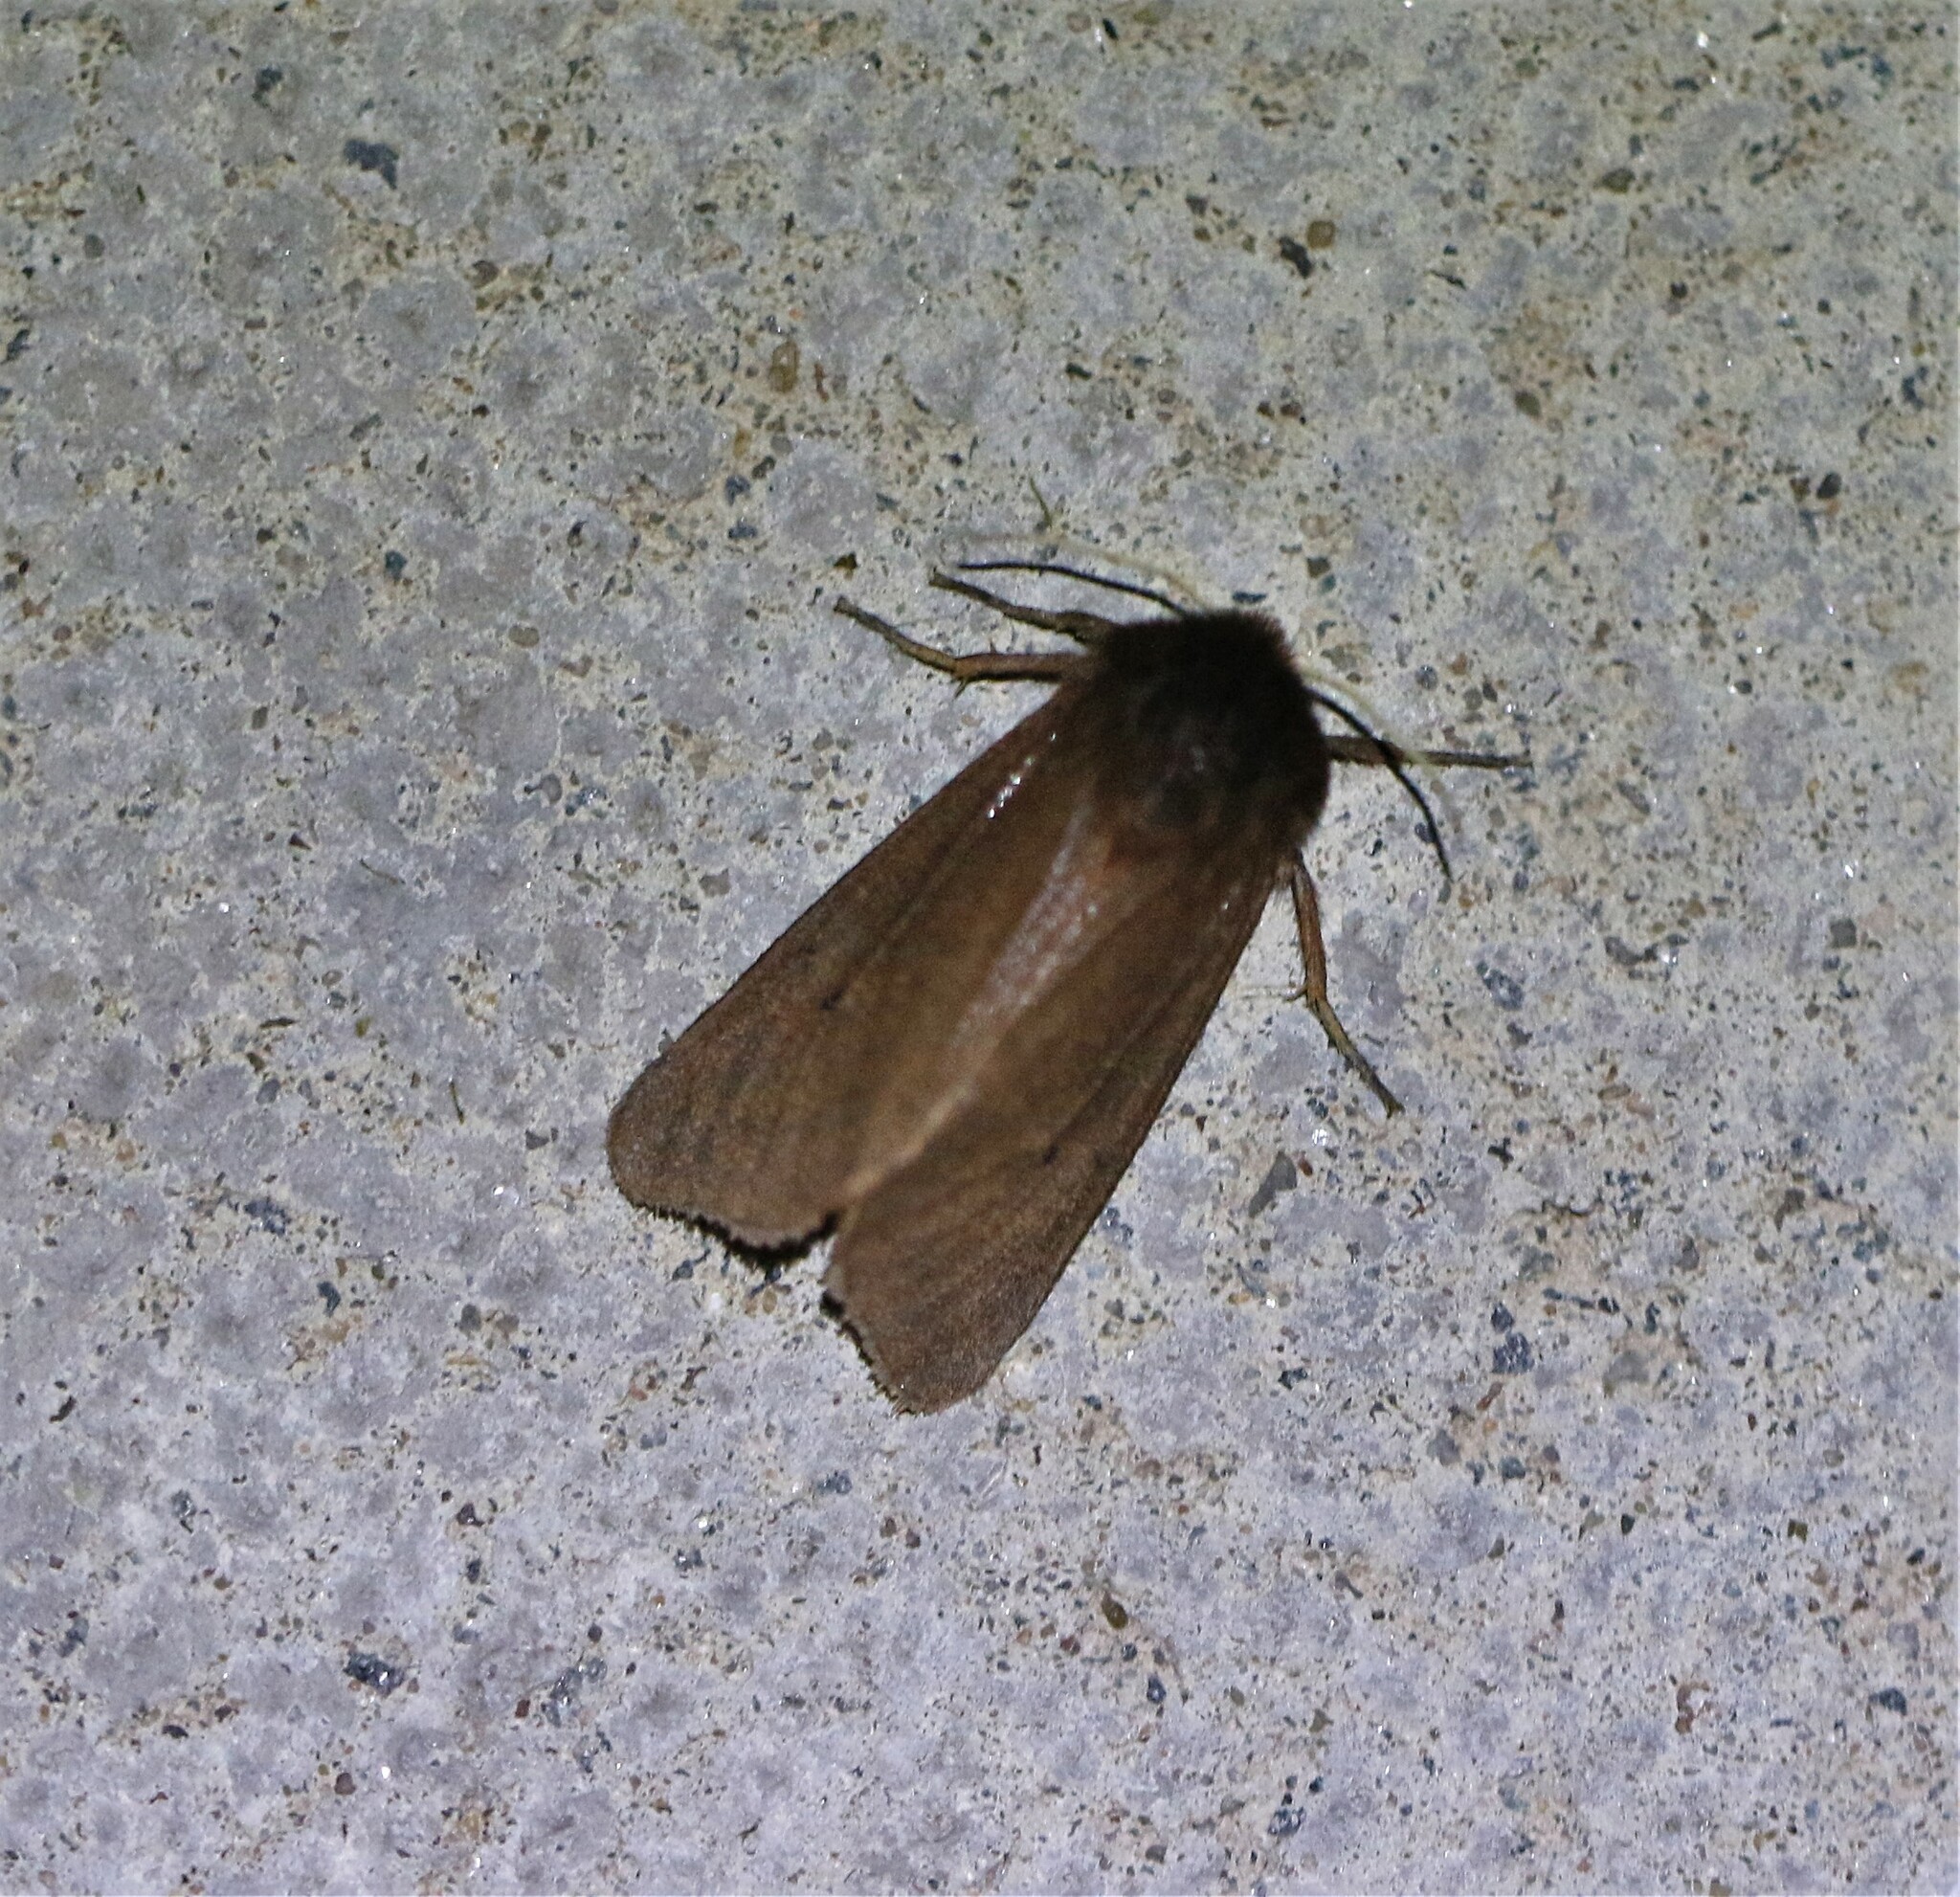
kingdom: Animalia
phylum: Arthropoda
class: Insecta
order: Lepidoptera
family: Erebidae
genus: Phragmatobia
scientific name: Phragmatobia fuliginosa
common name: Ruby tiger
